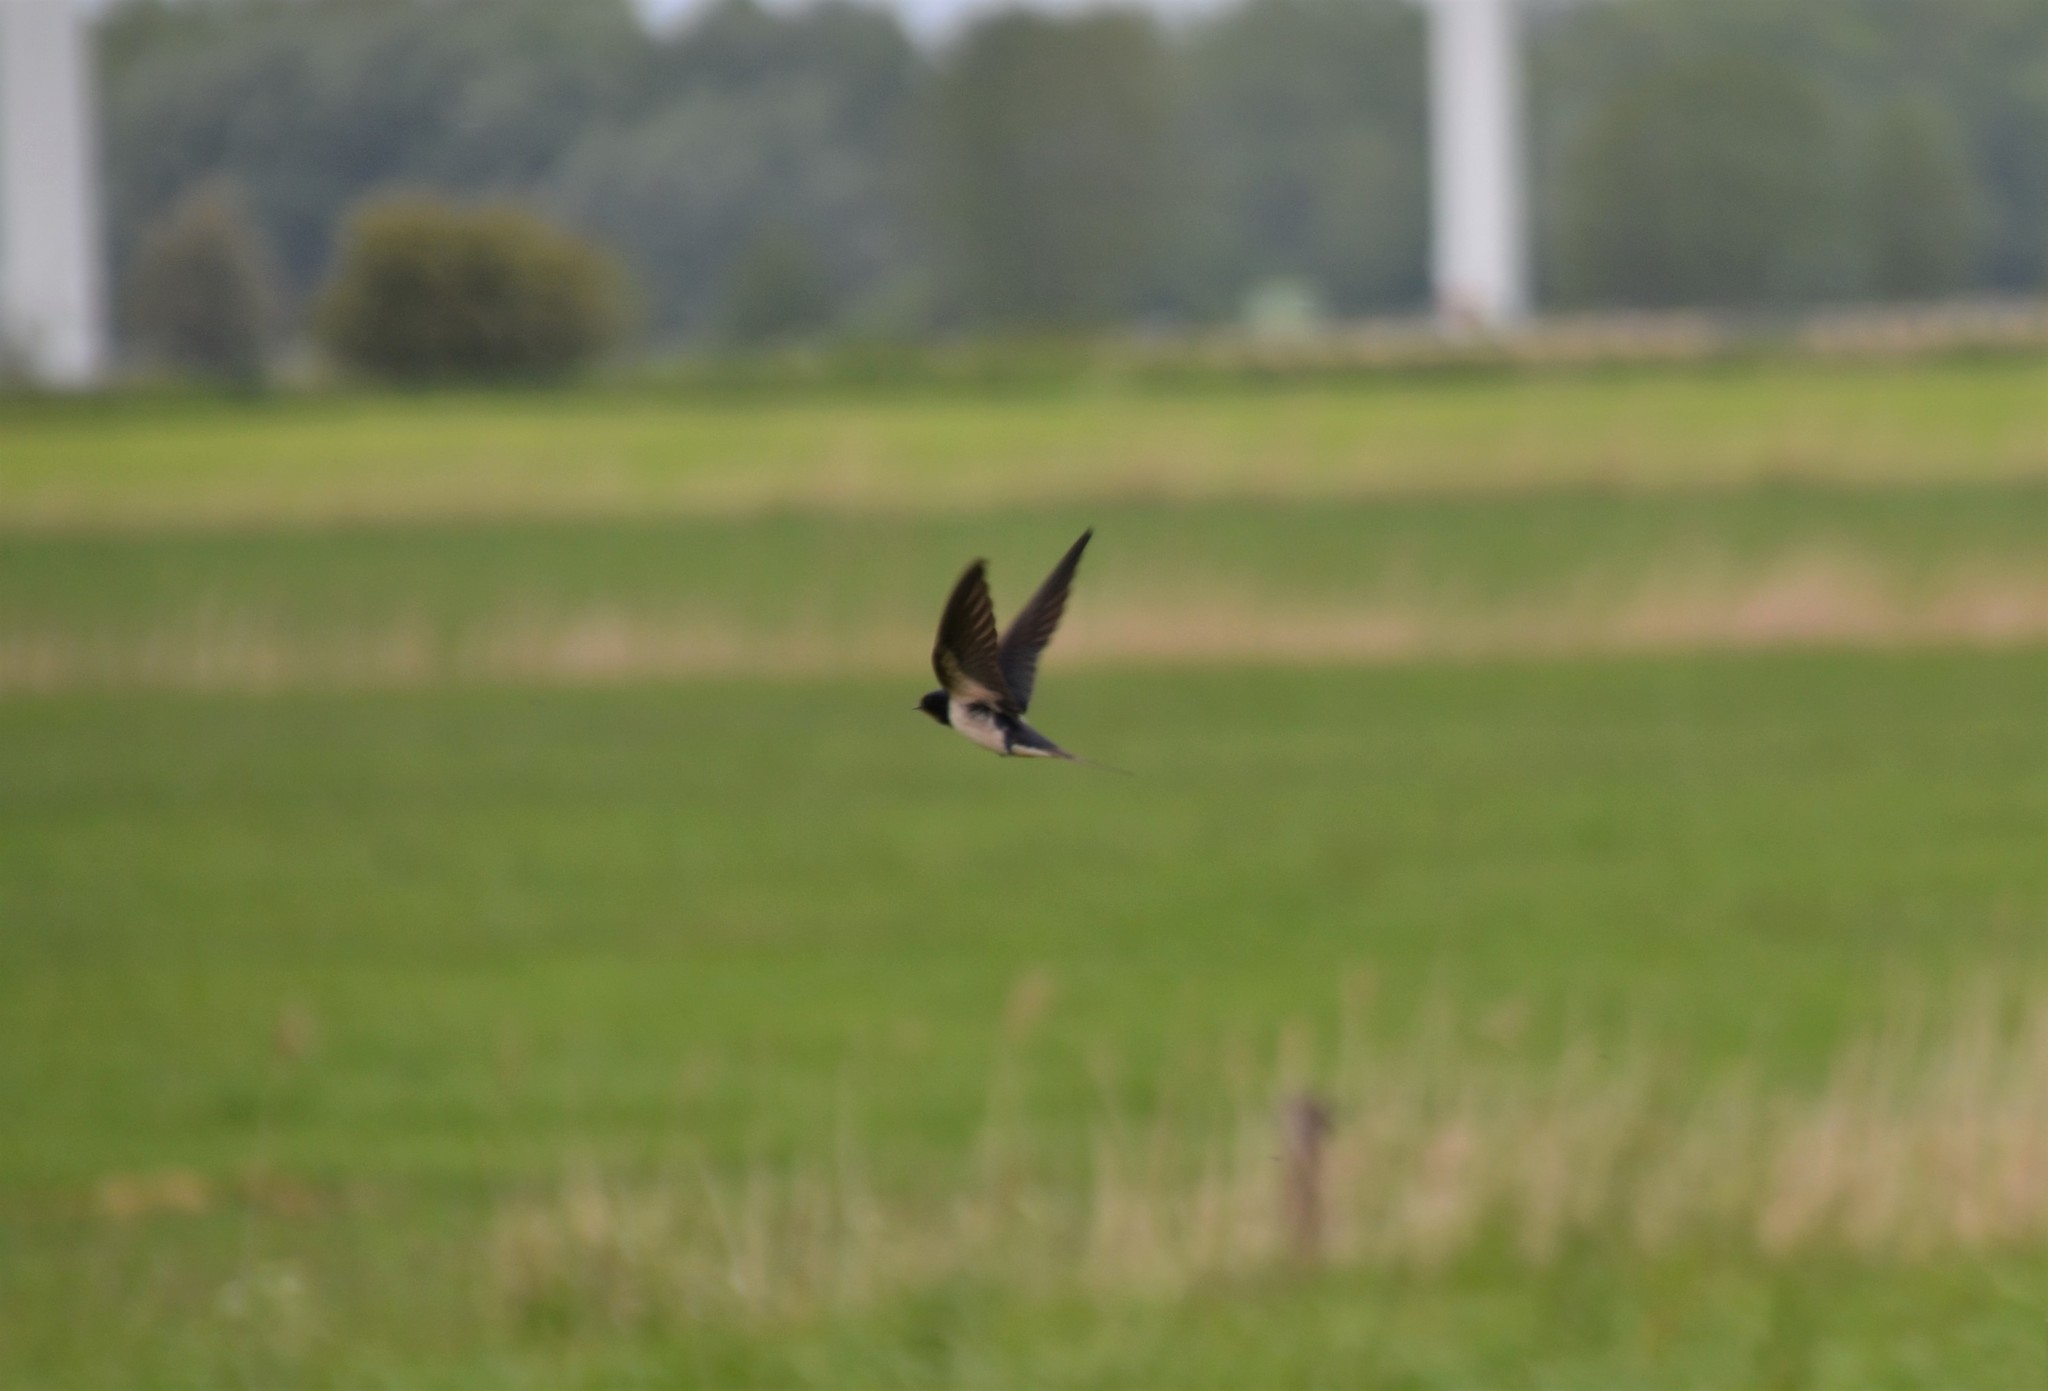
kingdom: Animalia
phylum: Chordata
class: Aves
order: Passeriformes
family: Hirundinidae
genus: Hirundo
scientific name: Hirundo rustica
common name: Barn swallow
